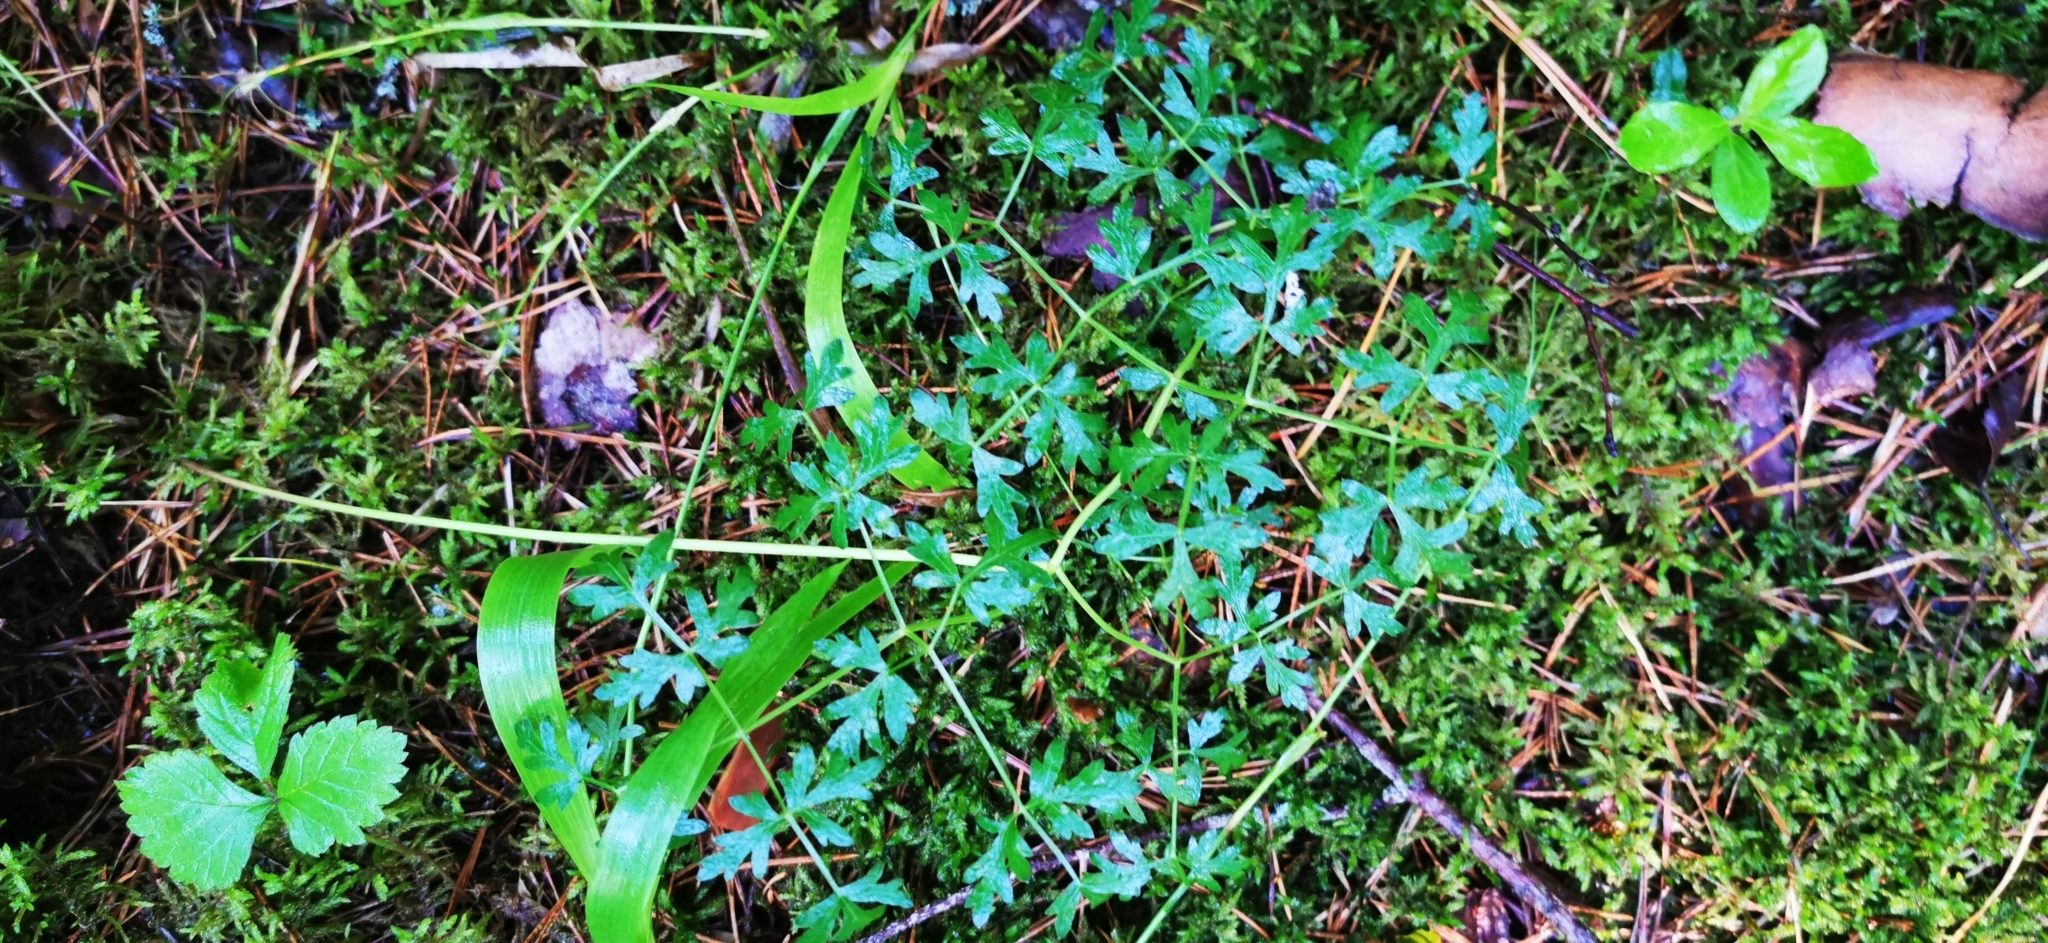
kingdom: Plantae
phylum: Tracheophyta
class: Magnoliopsida
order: Apiales
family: Apiaceae
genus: Oreoselinum
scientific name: Oreoselinum nigrum
